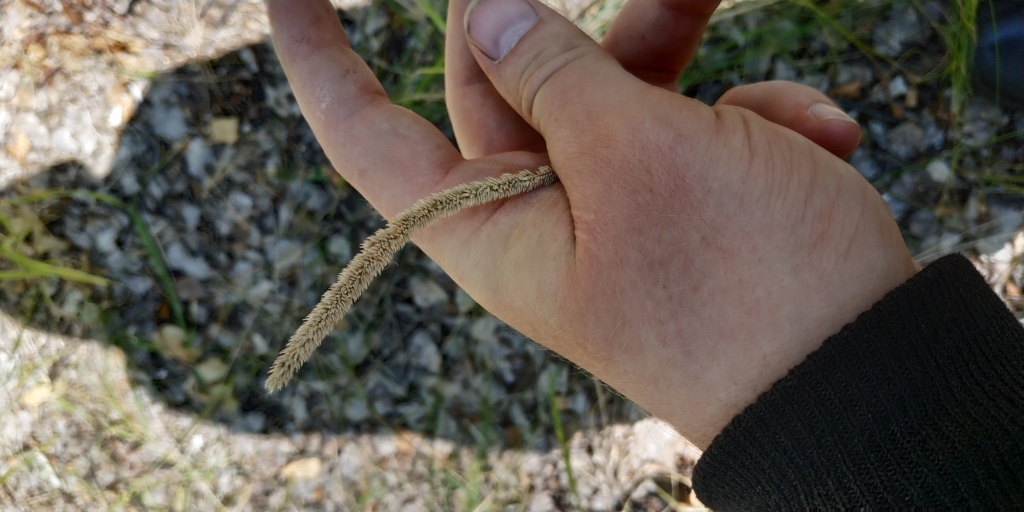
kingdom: Plantae
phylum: Tracheophyta
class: Liliopsida
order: Poales
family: Poaceae
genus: Phleum
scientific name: Phleum phleoides
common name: Purple-stem cat's-tail
